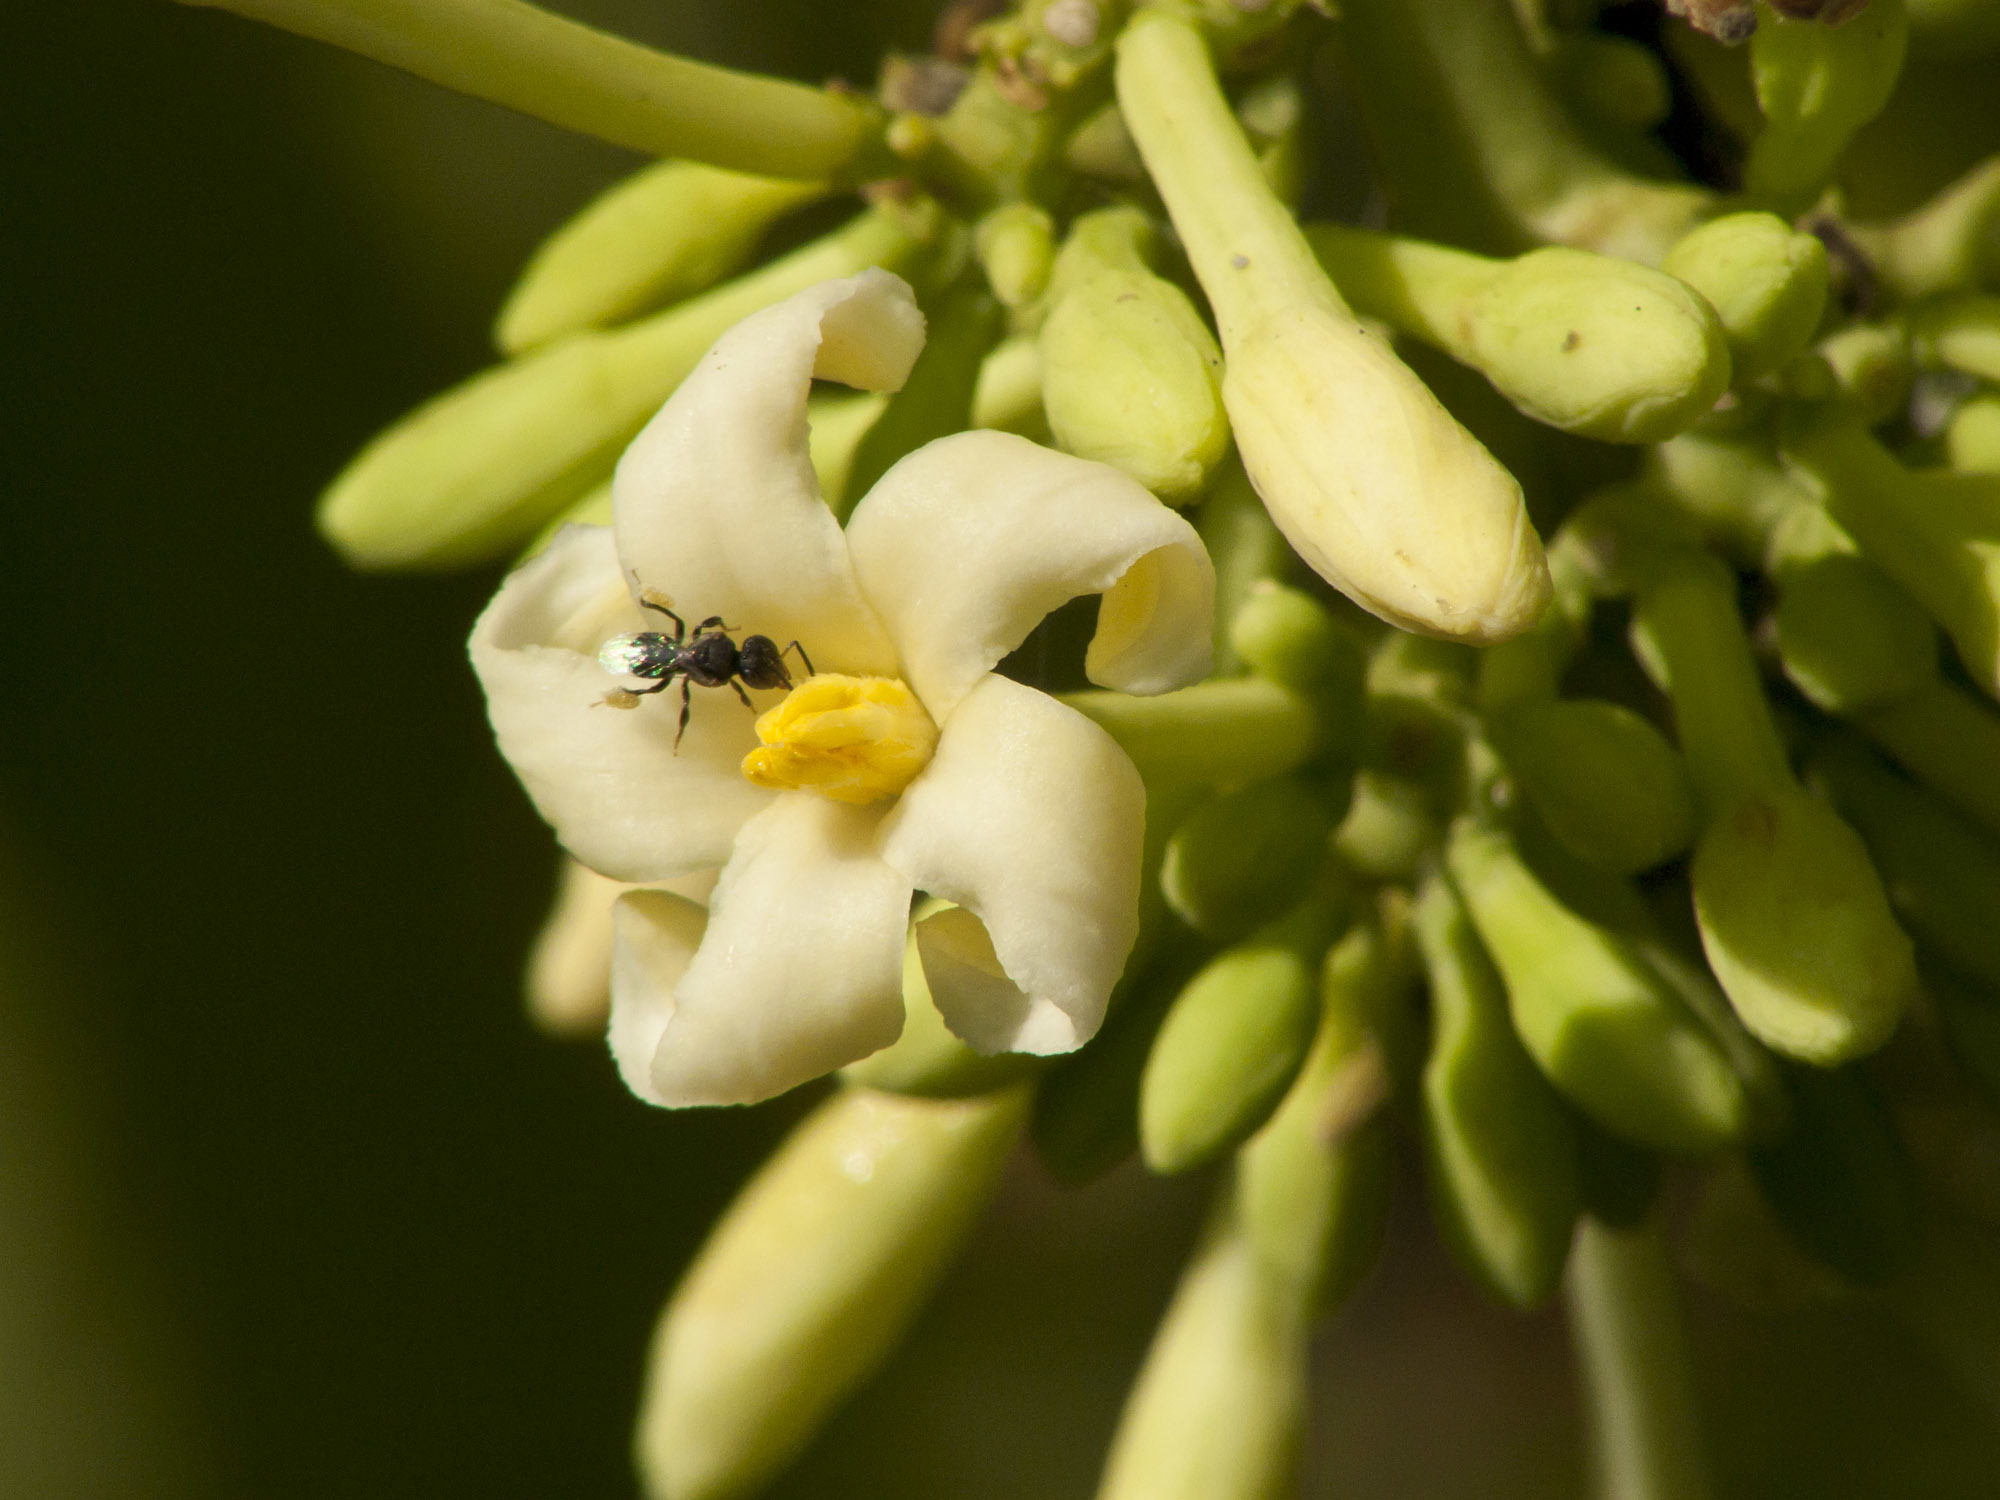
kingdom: Plantae
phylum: Tracheophyta
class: Magnoliopsida
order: Brassicales
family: Caricaceae
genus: Carica
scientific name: Carica papaya
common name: Papaya
